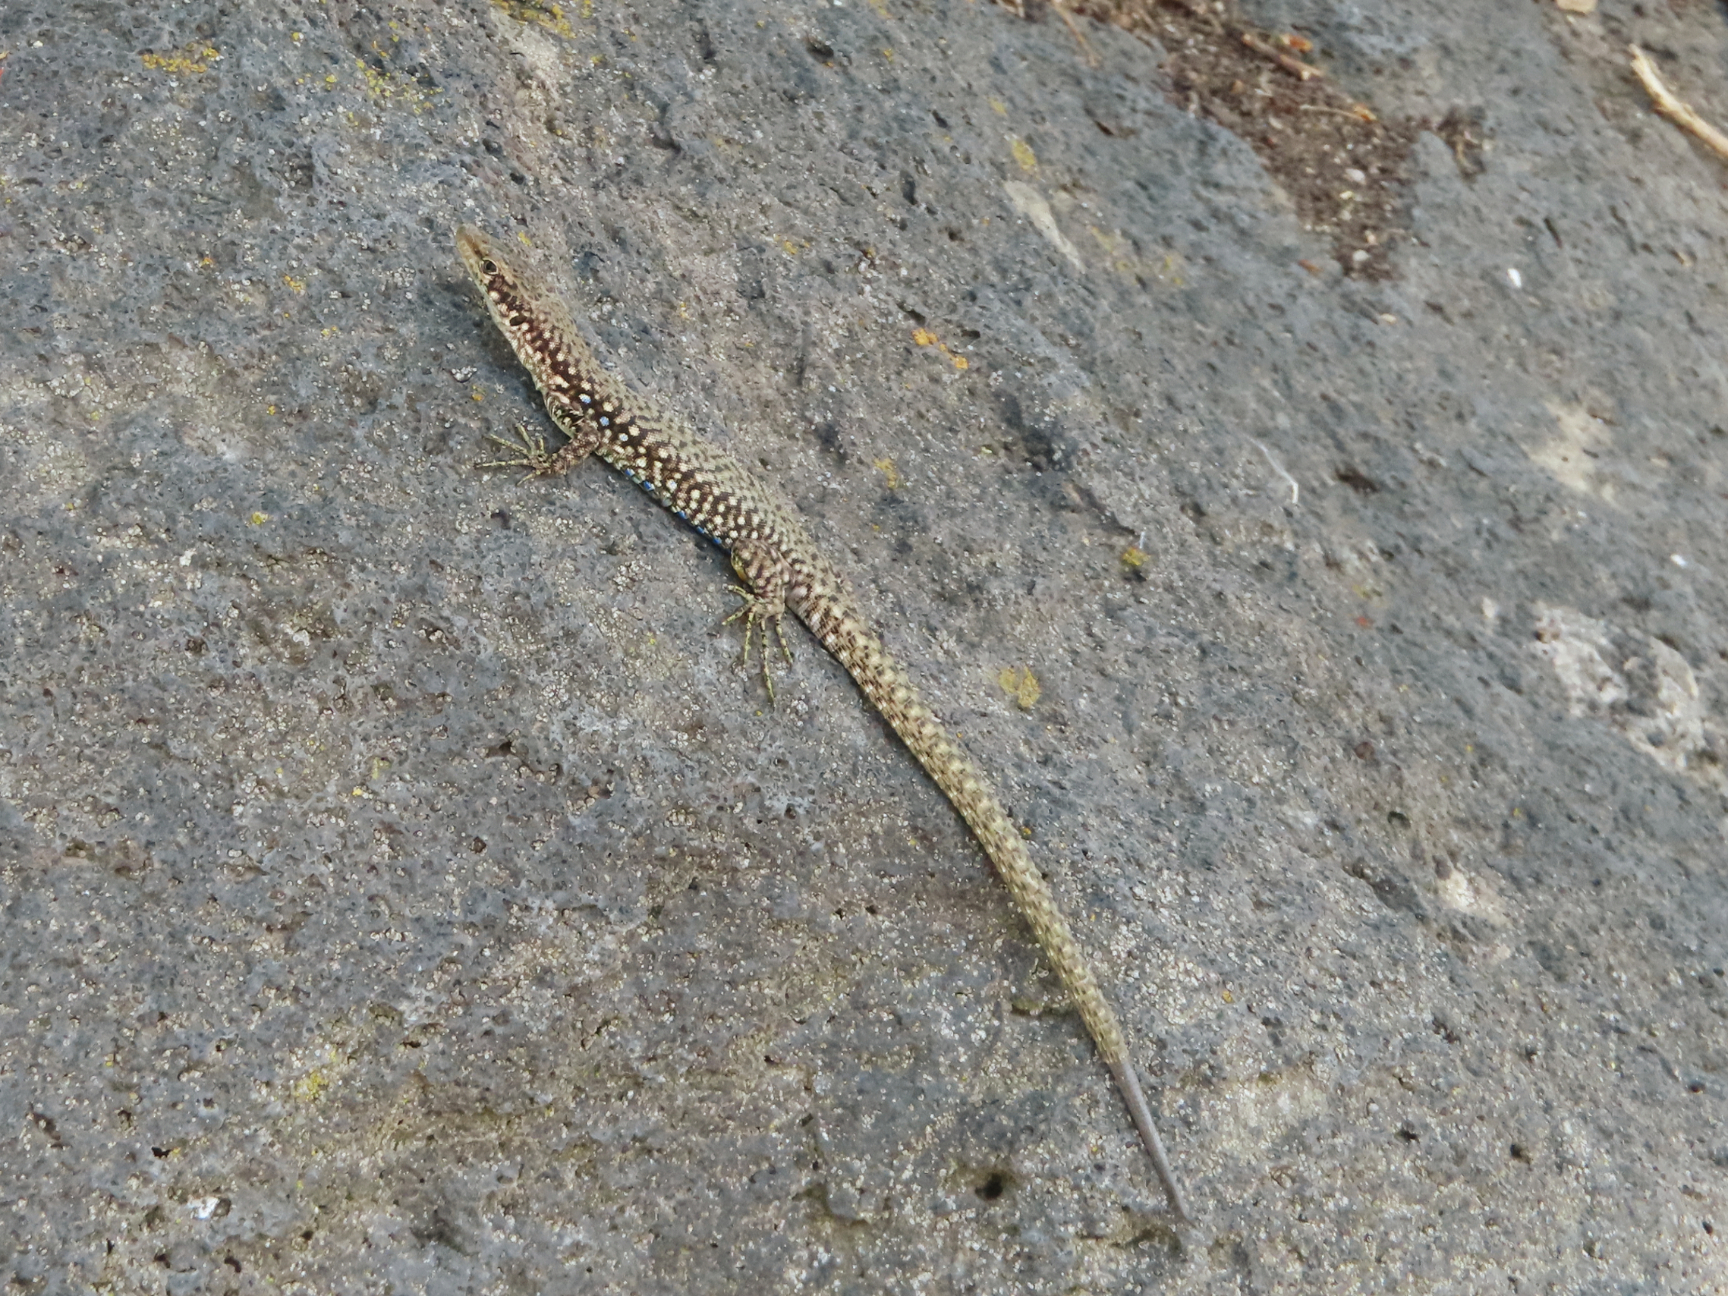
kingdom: Animalia
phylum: Chordata
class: Squamata
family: Lacertidae
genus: Darevskia
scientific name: Darevskia
